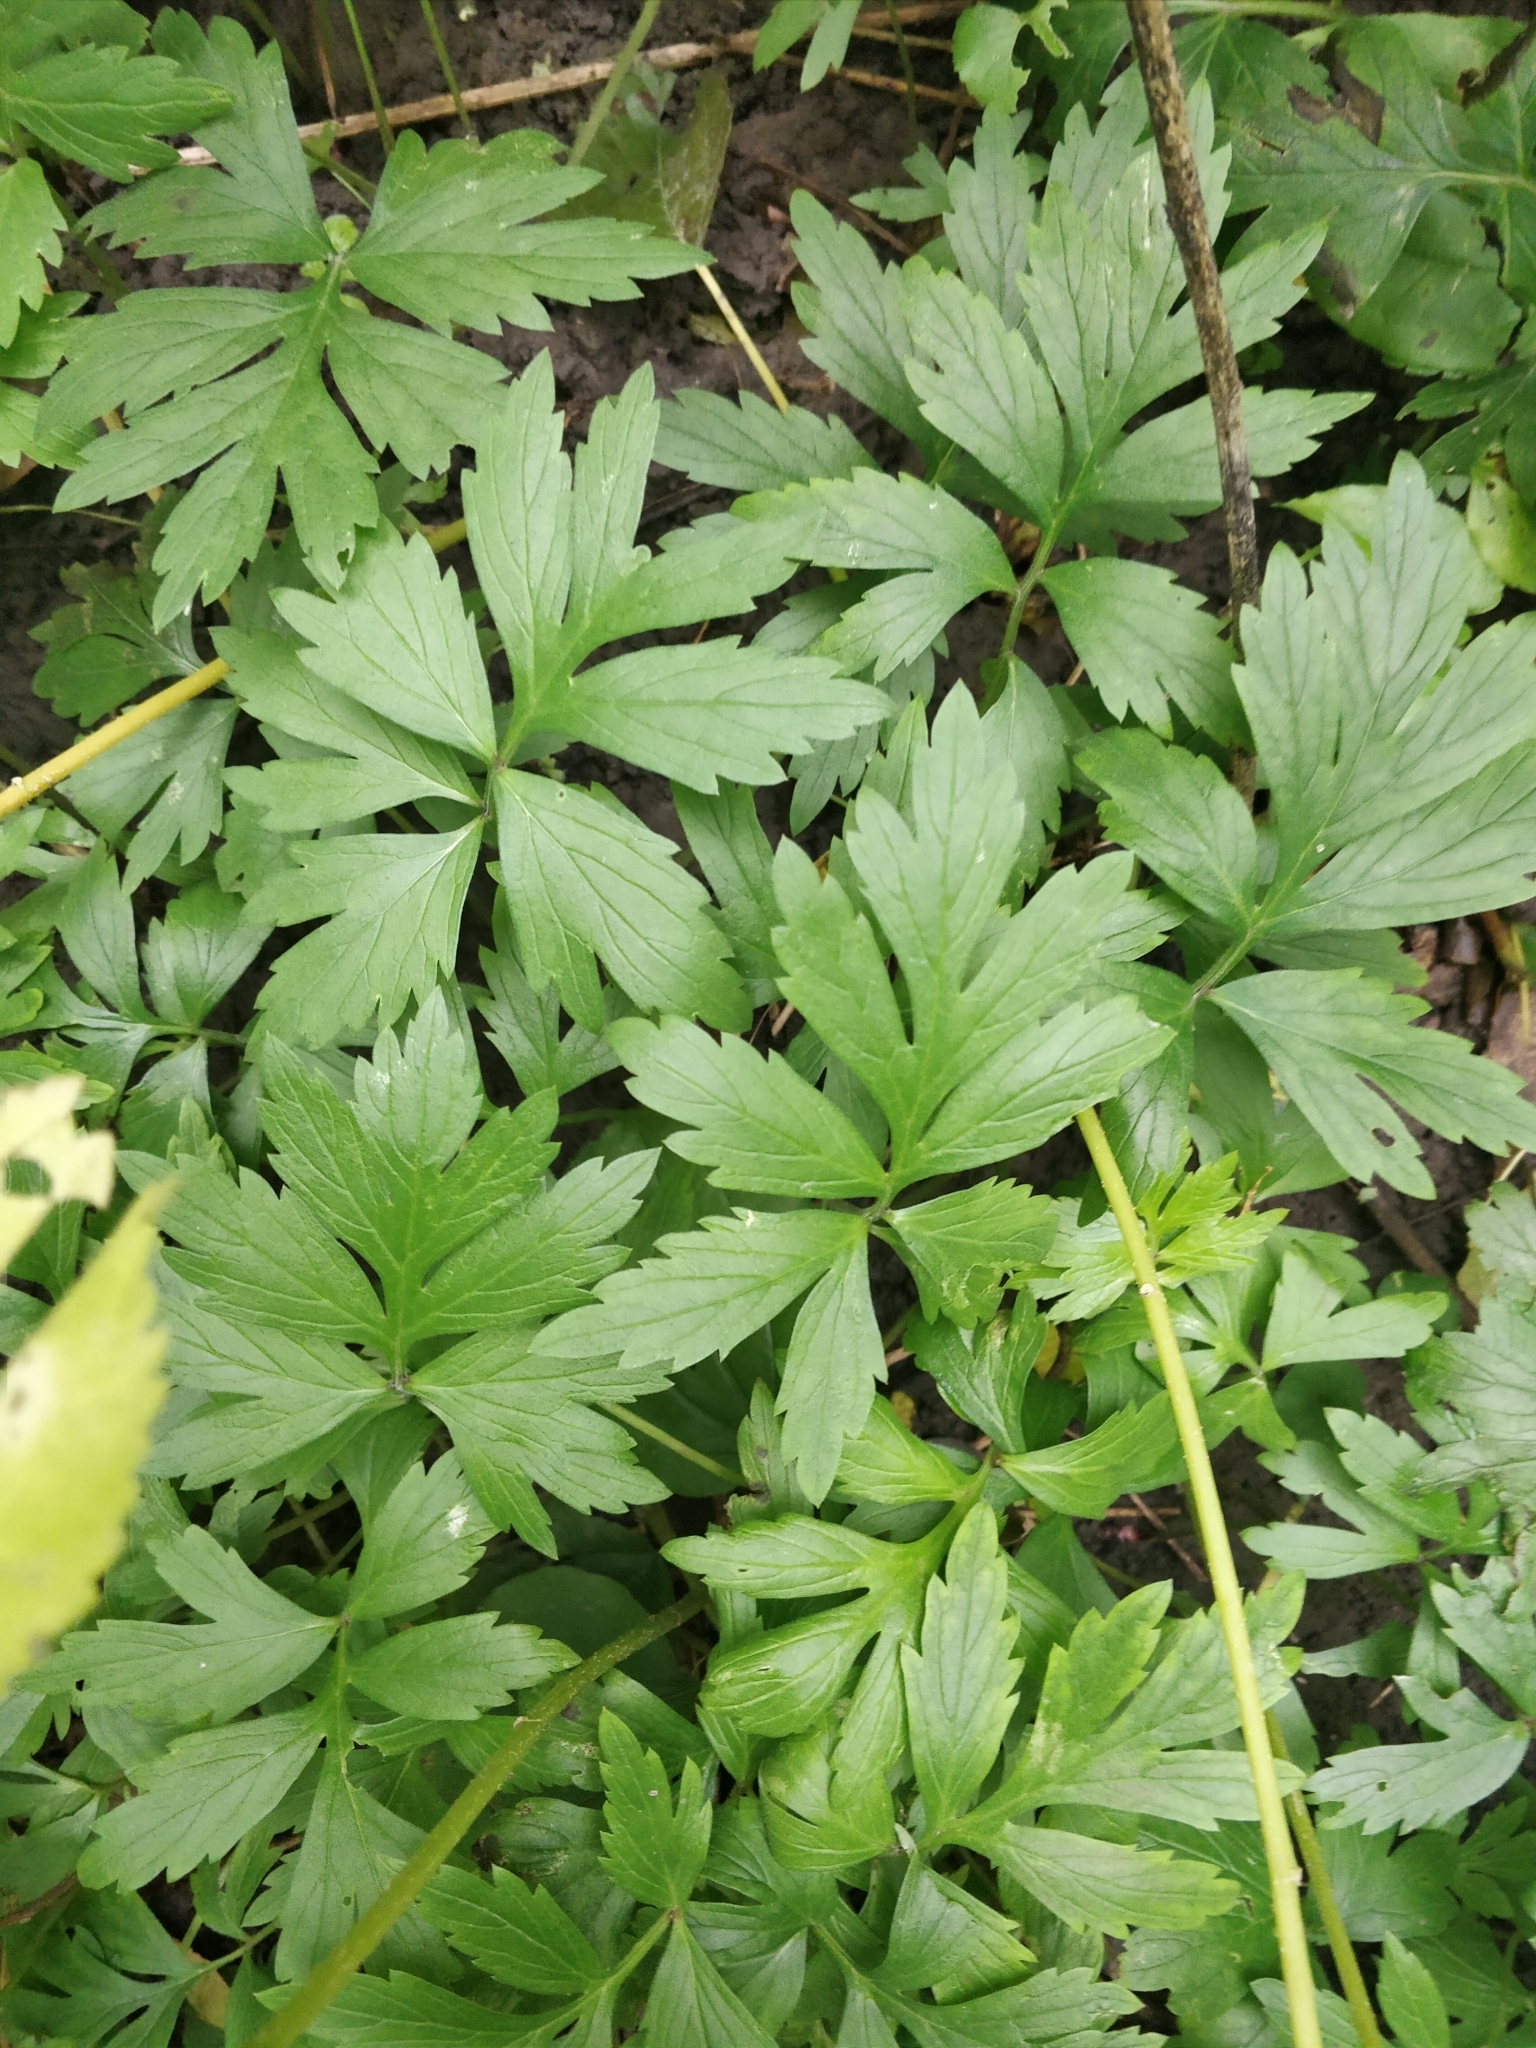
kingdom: Plantae
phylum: Tracheophyta
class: Magnoliopsida
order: Boraginales
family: Hydrophyllaceae
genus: Hydrophyllum
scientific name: Hydrophyllum virginianum
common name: Virginia waterleaf
